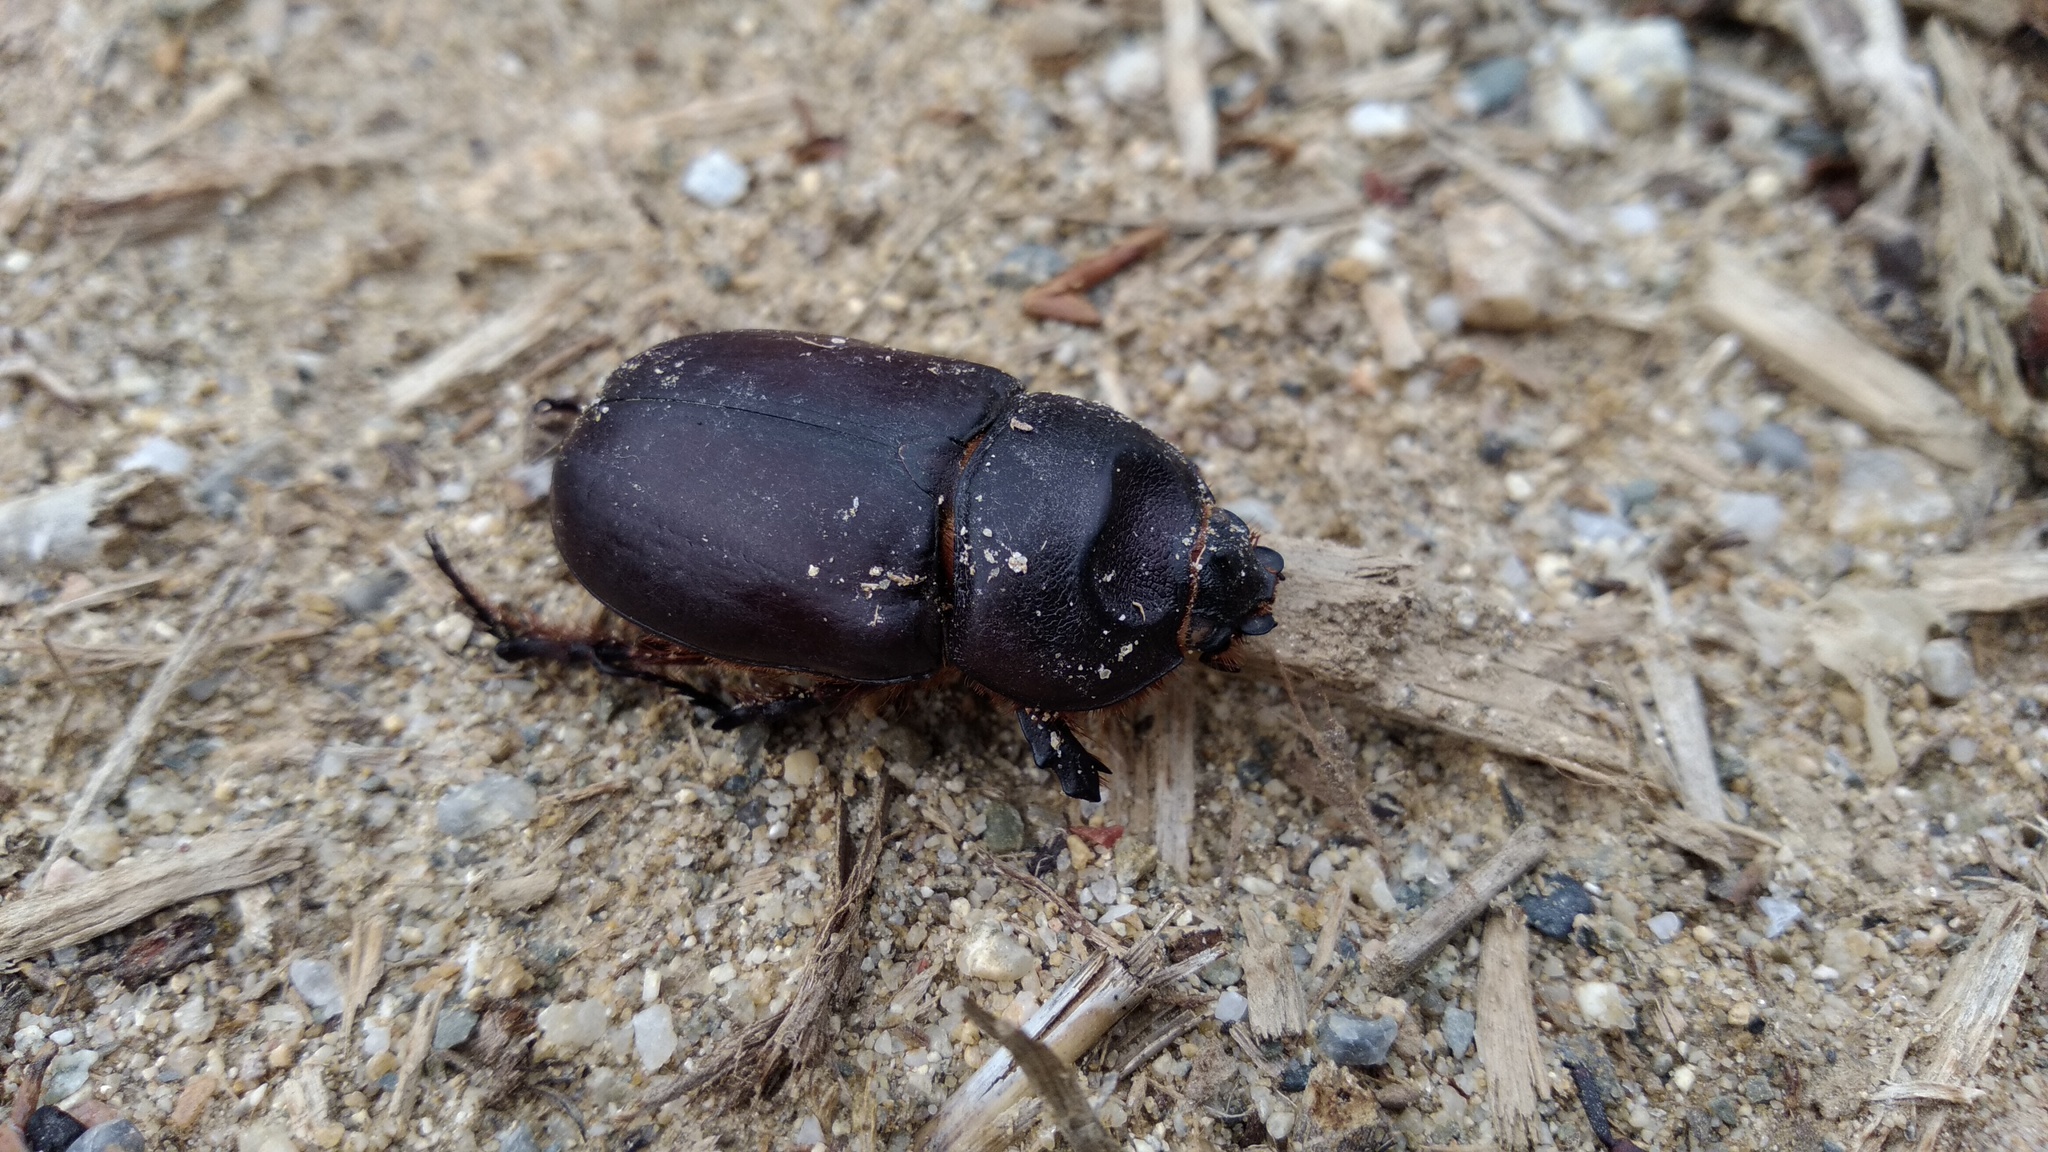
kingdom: Animalia
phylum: Arthropoda
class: Insecta
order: Coleoptera
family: Scarabaeidae
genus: Oryctes
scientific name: Oryctes nasicornis
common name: European rhinoceros beetle
